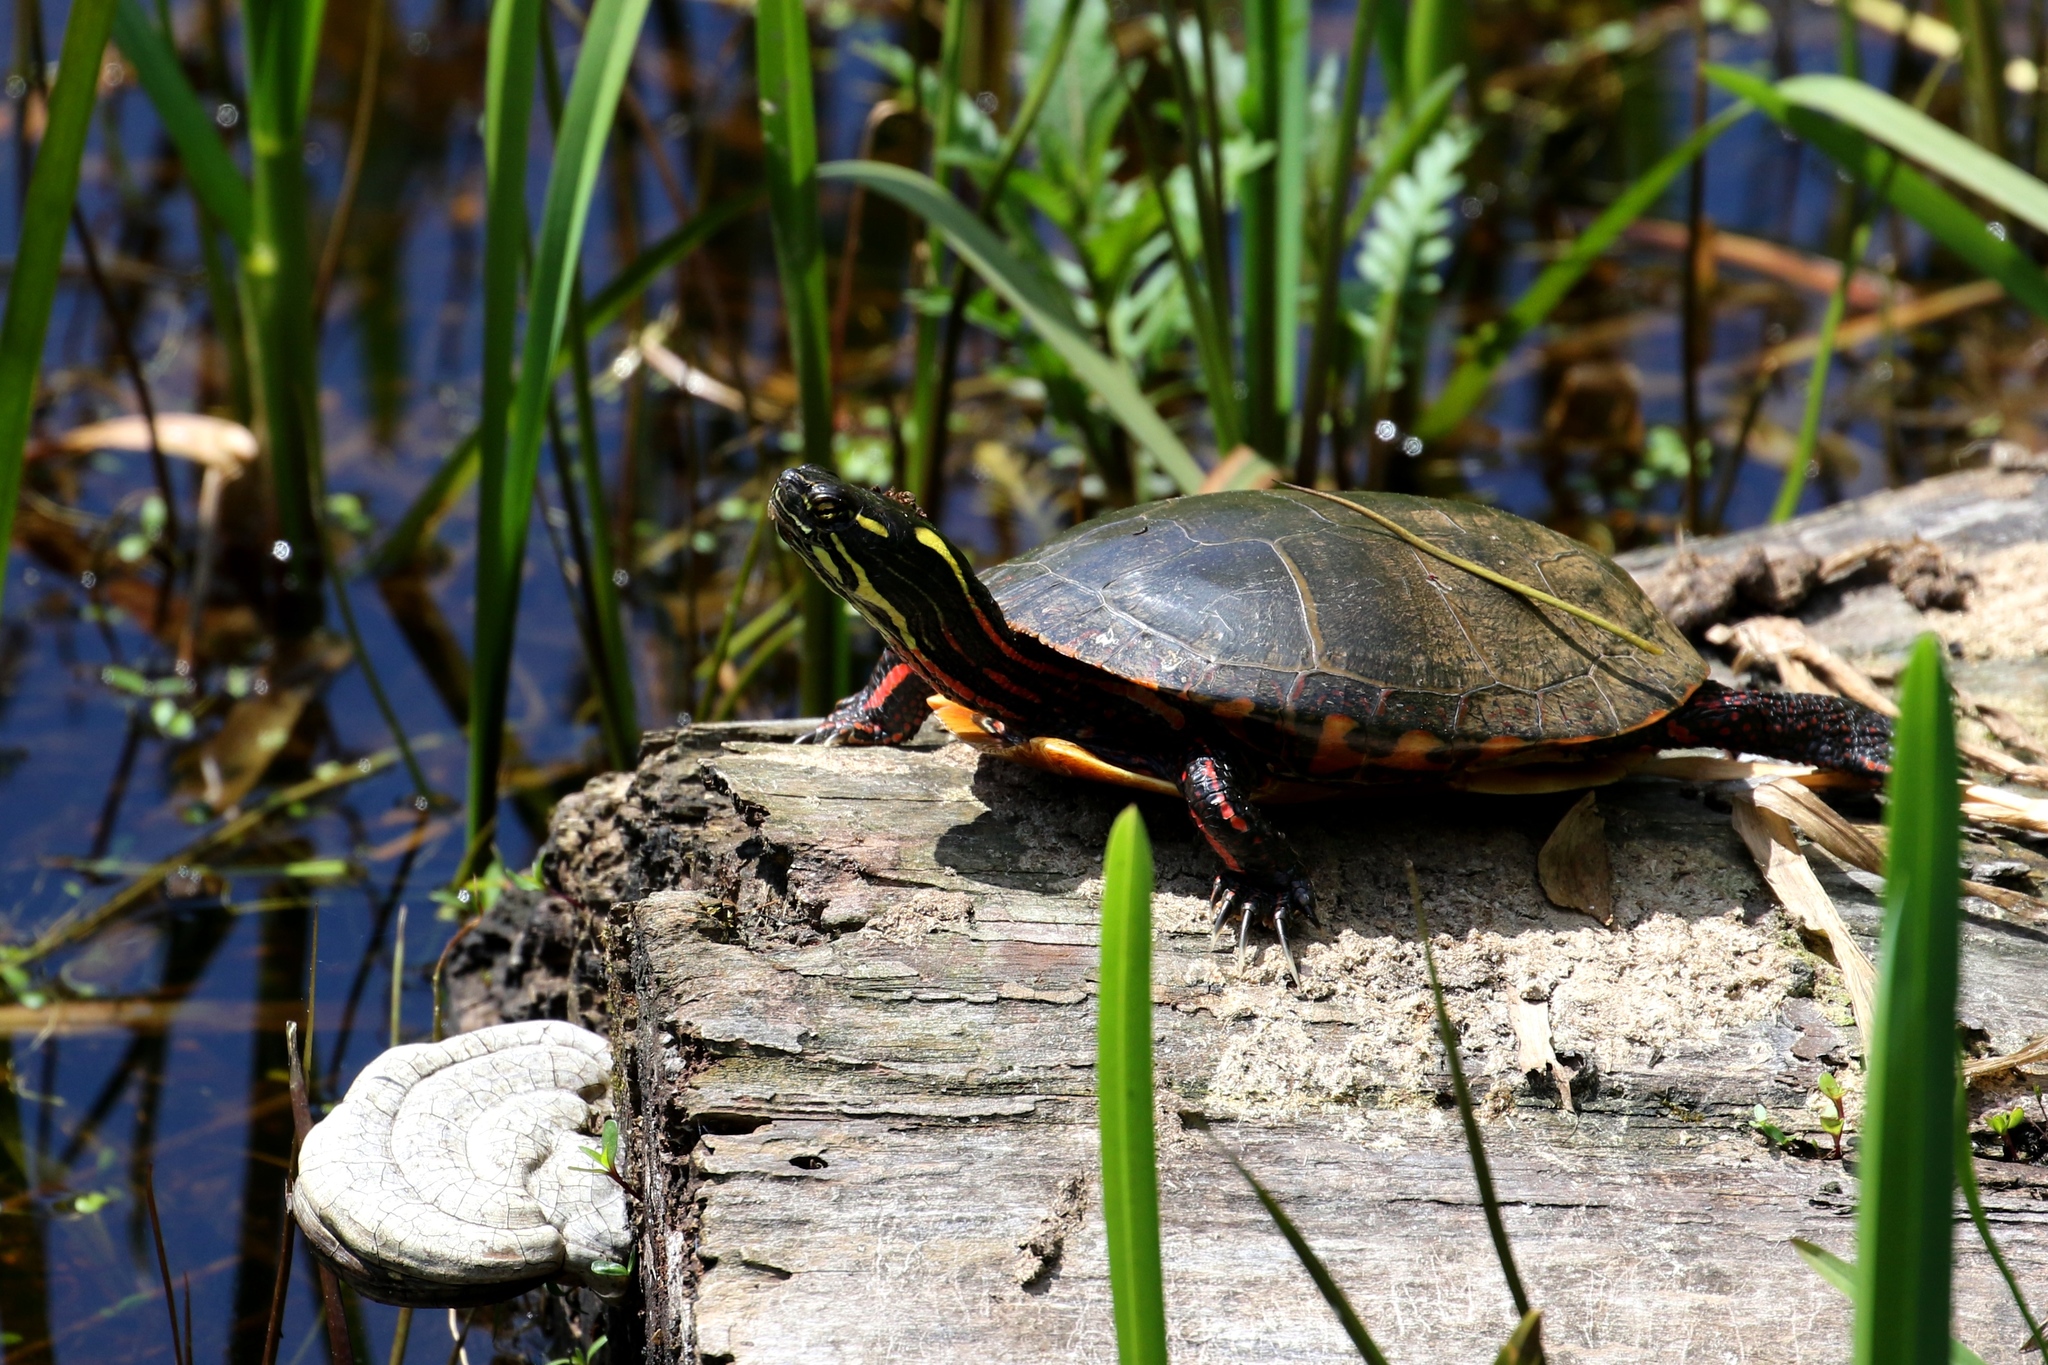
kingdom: Animalia
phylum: Chordata
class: Testudines
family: Emydidae
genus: Chrysemys
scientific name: Chrysemys picta
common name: Painted turtle
